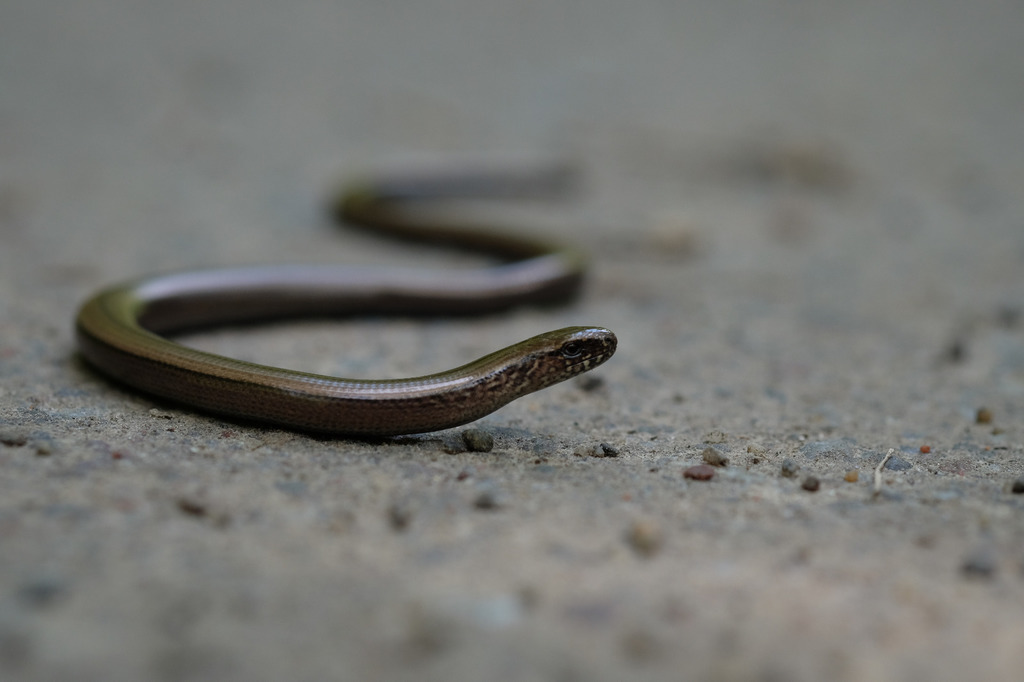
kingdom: Animalia
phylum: Chordata
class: Squamata
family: Anguidae
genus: Anguis
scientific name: Anguis fragilis
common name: Slow worm
